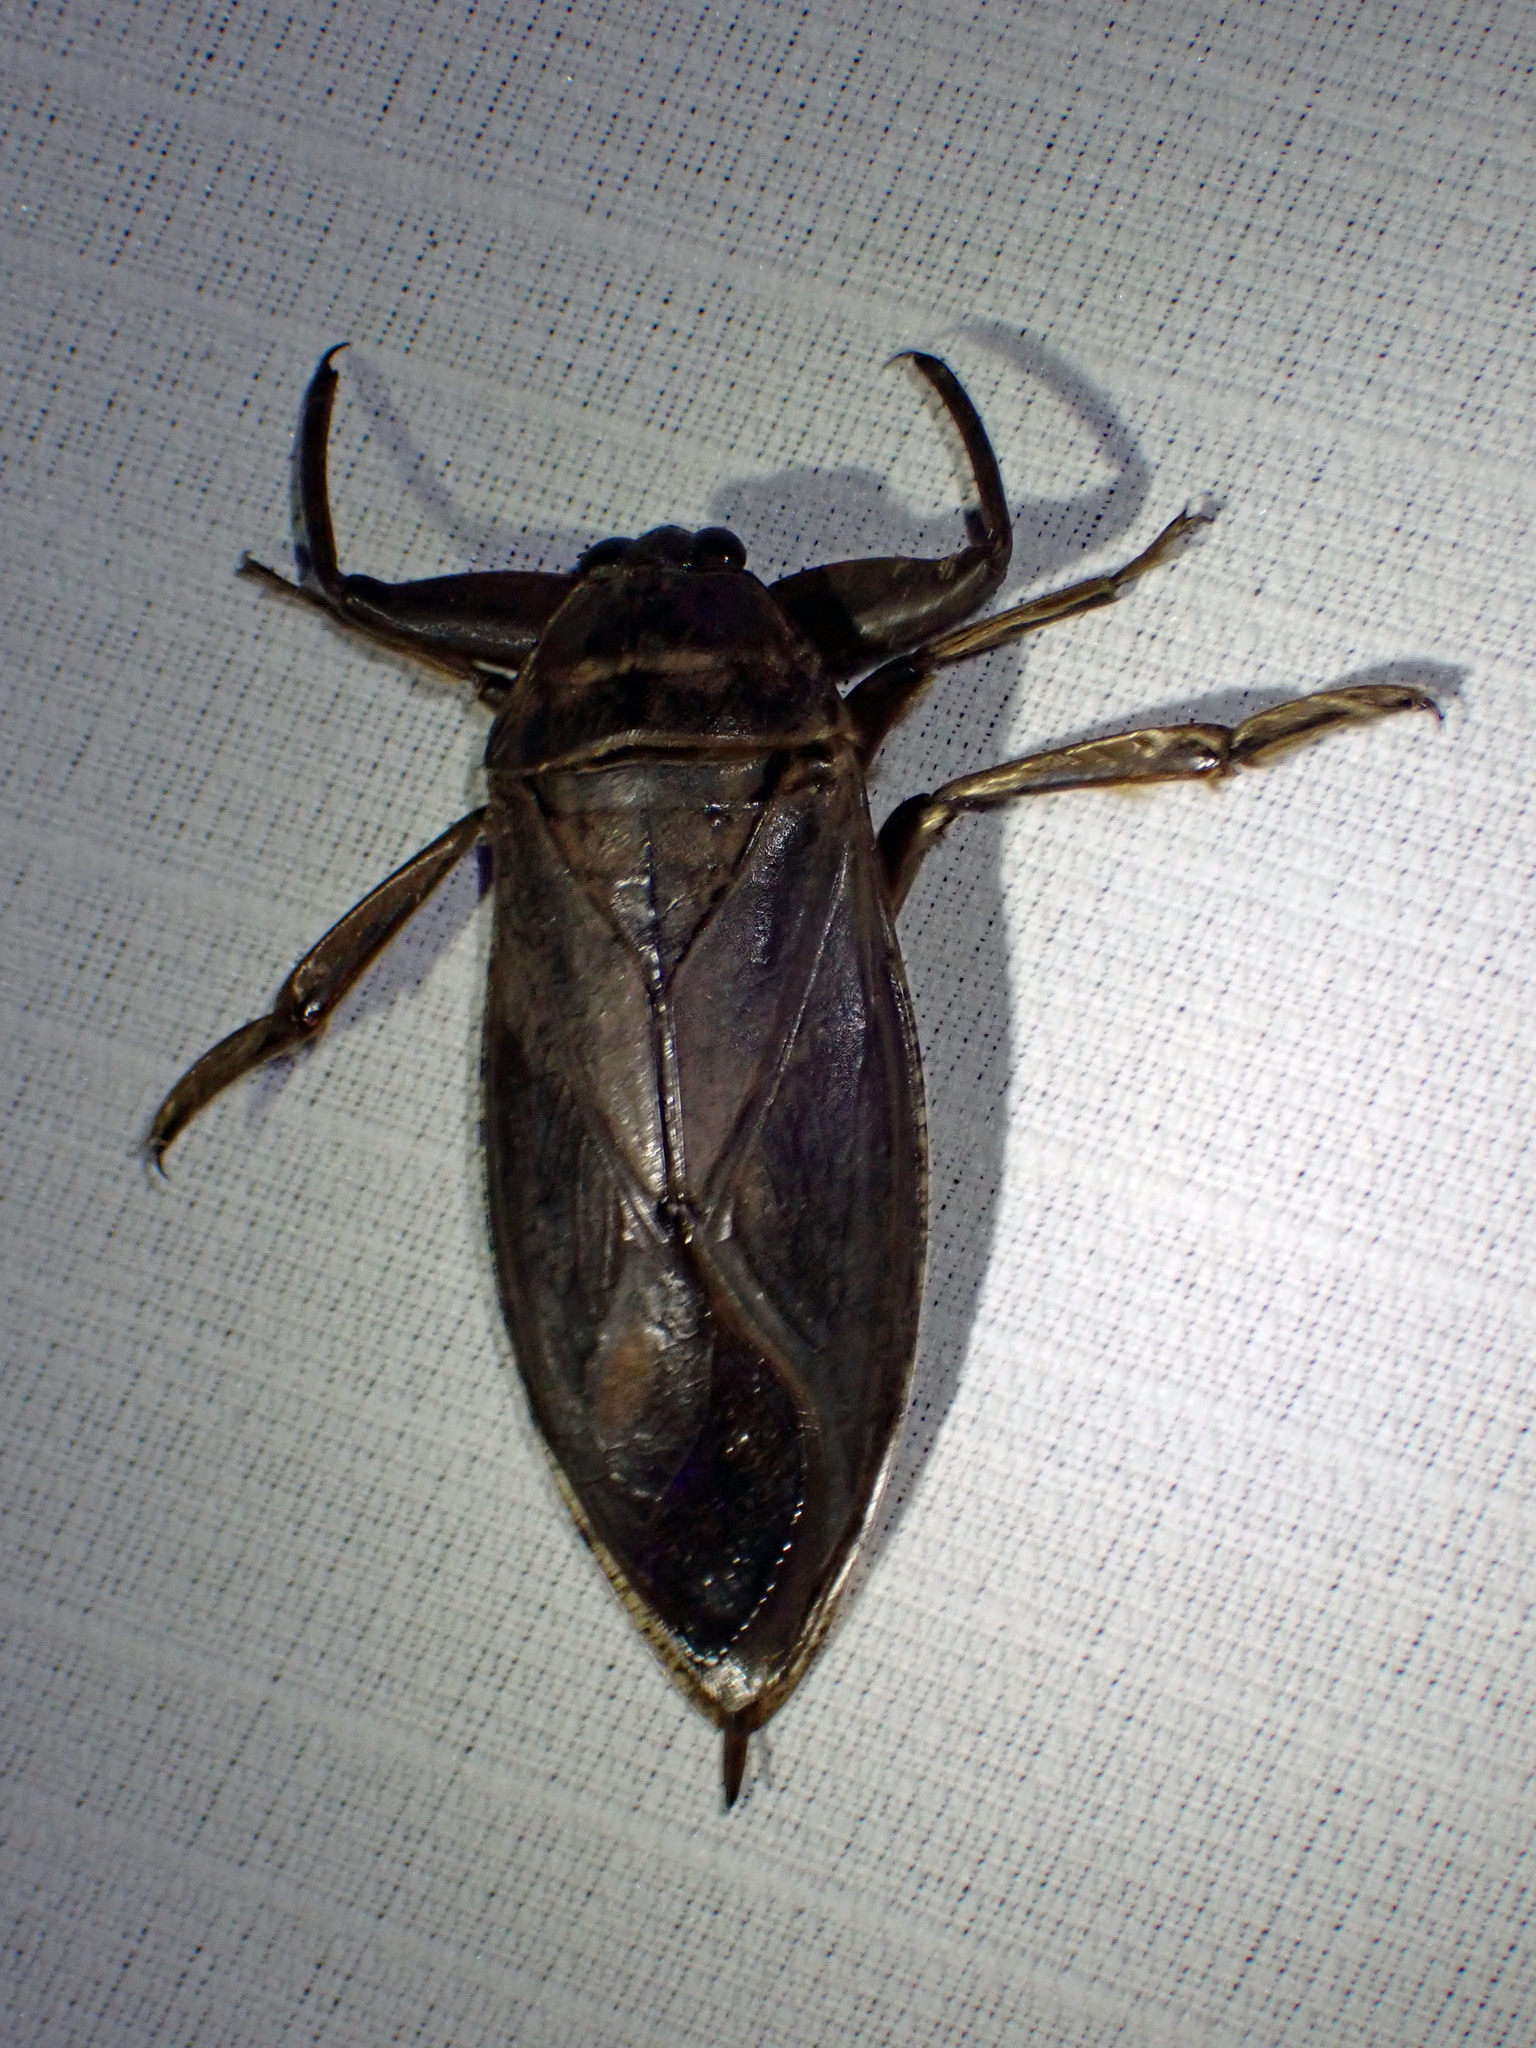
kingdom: Animalia
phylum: Arthropoda
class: Insecta
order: Hemiptera
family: Belostomatidae
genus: Lethocerus
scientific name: Lethocerus americanus
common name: Giant water bug
